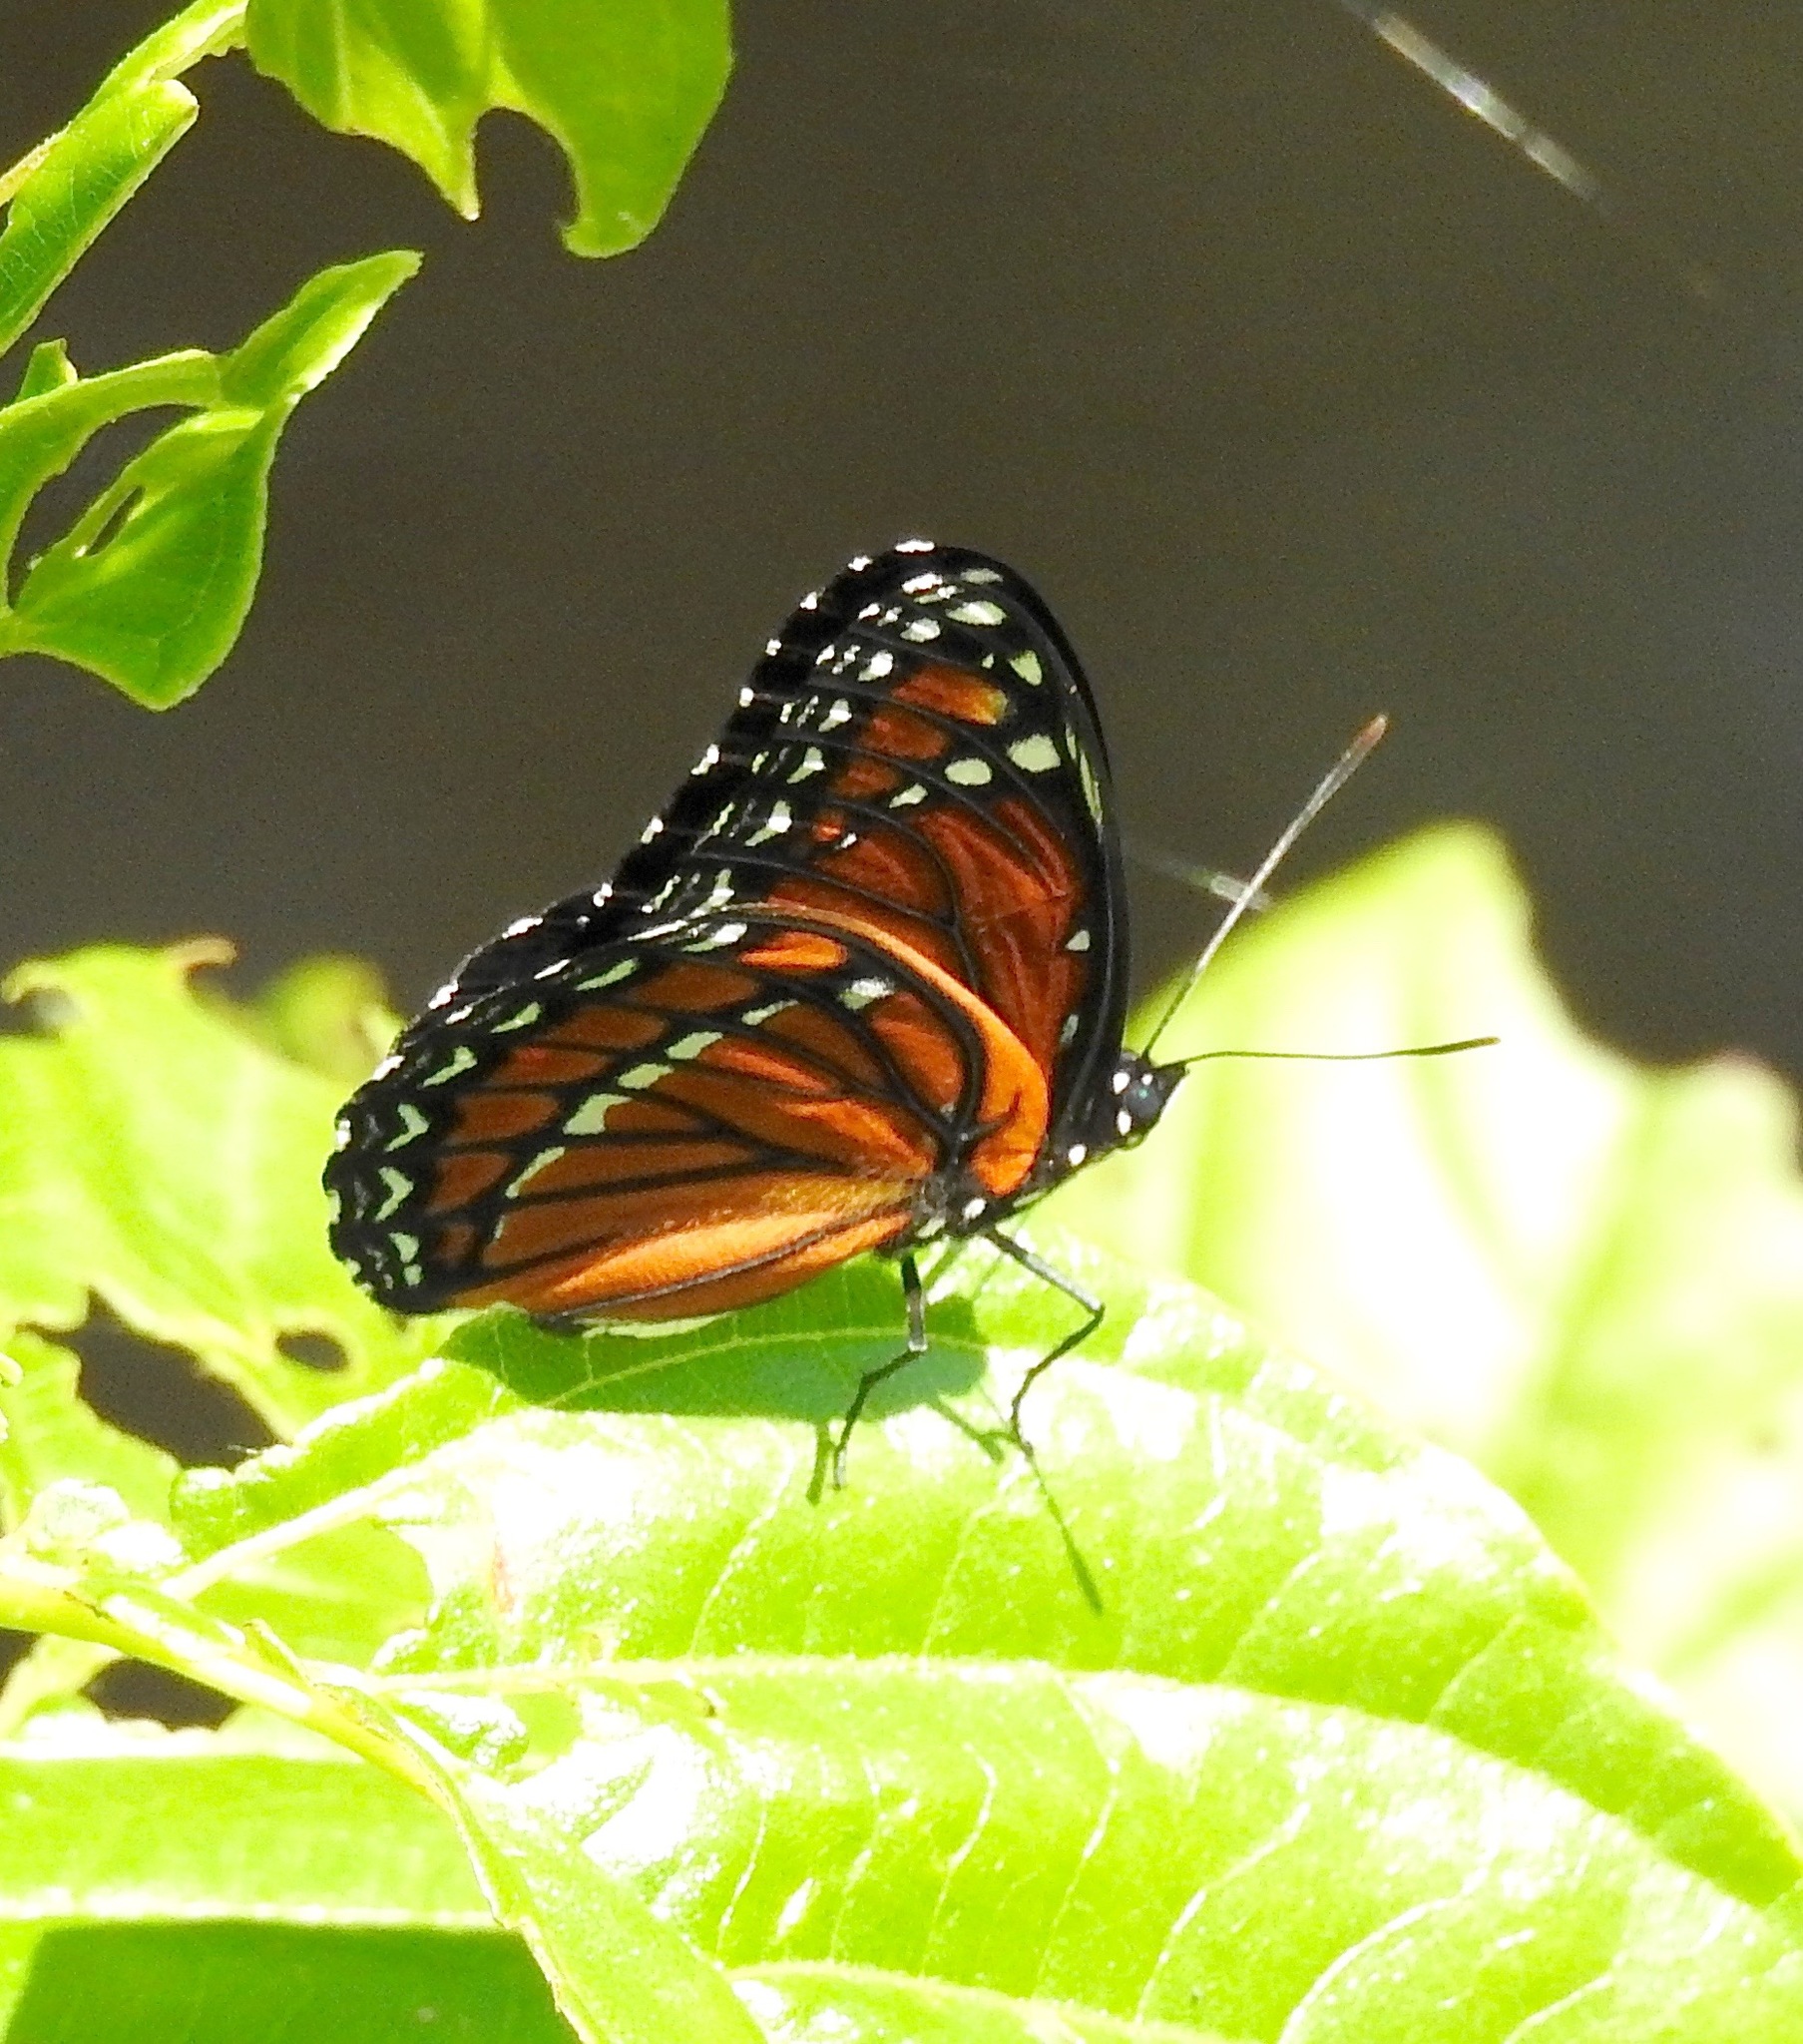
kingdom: Animalia
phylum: Arthropoda
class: Insecta
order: Lepidoptera
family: Nymphalidae
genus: Limenitis
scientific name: Limenitis archippus
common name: Viceroy
